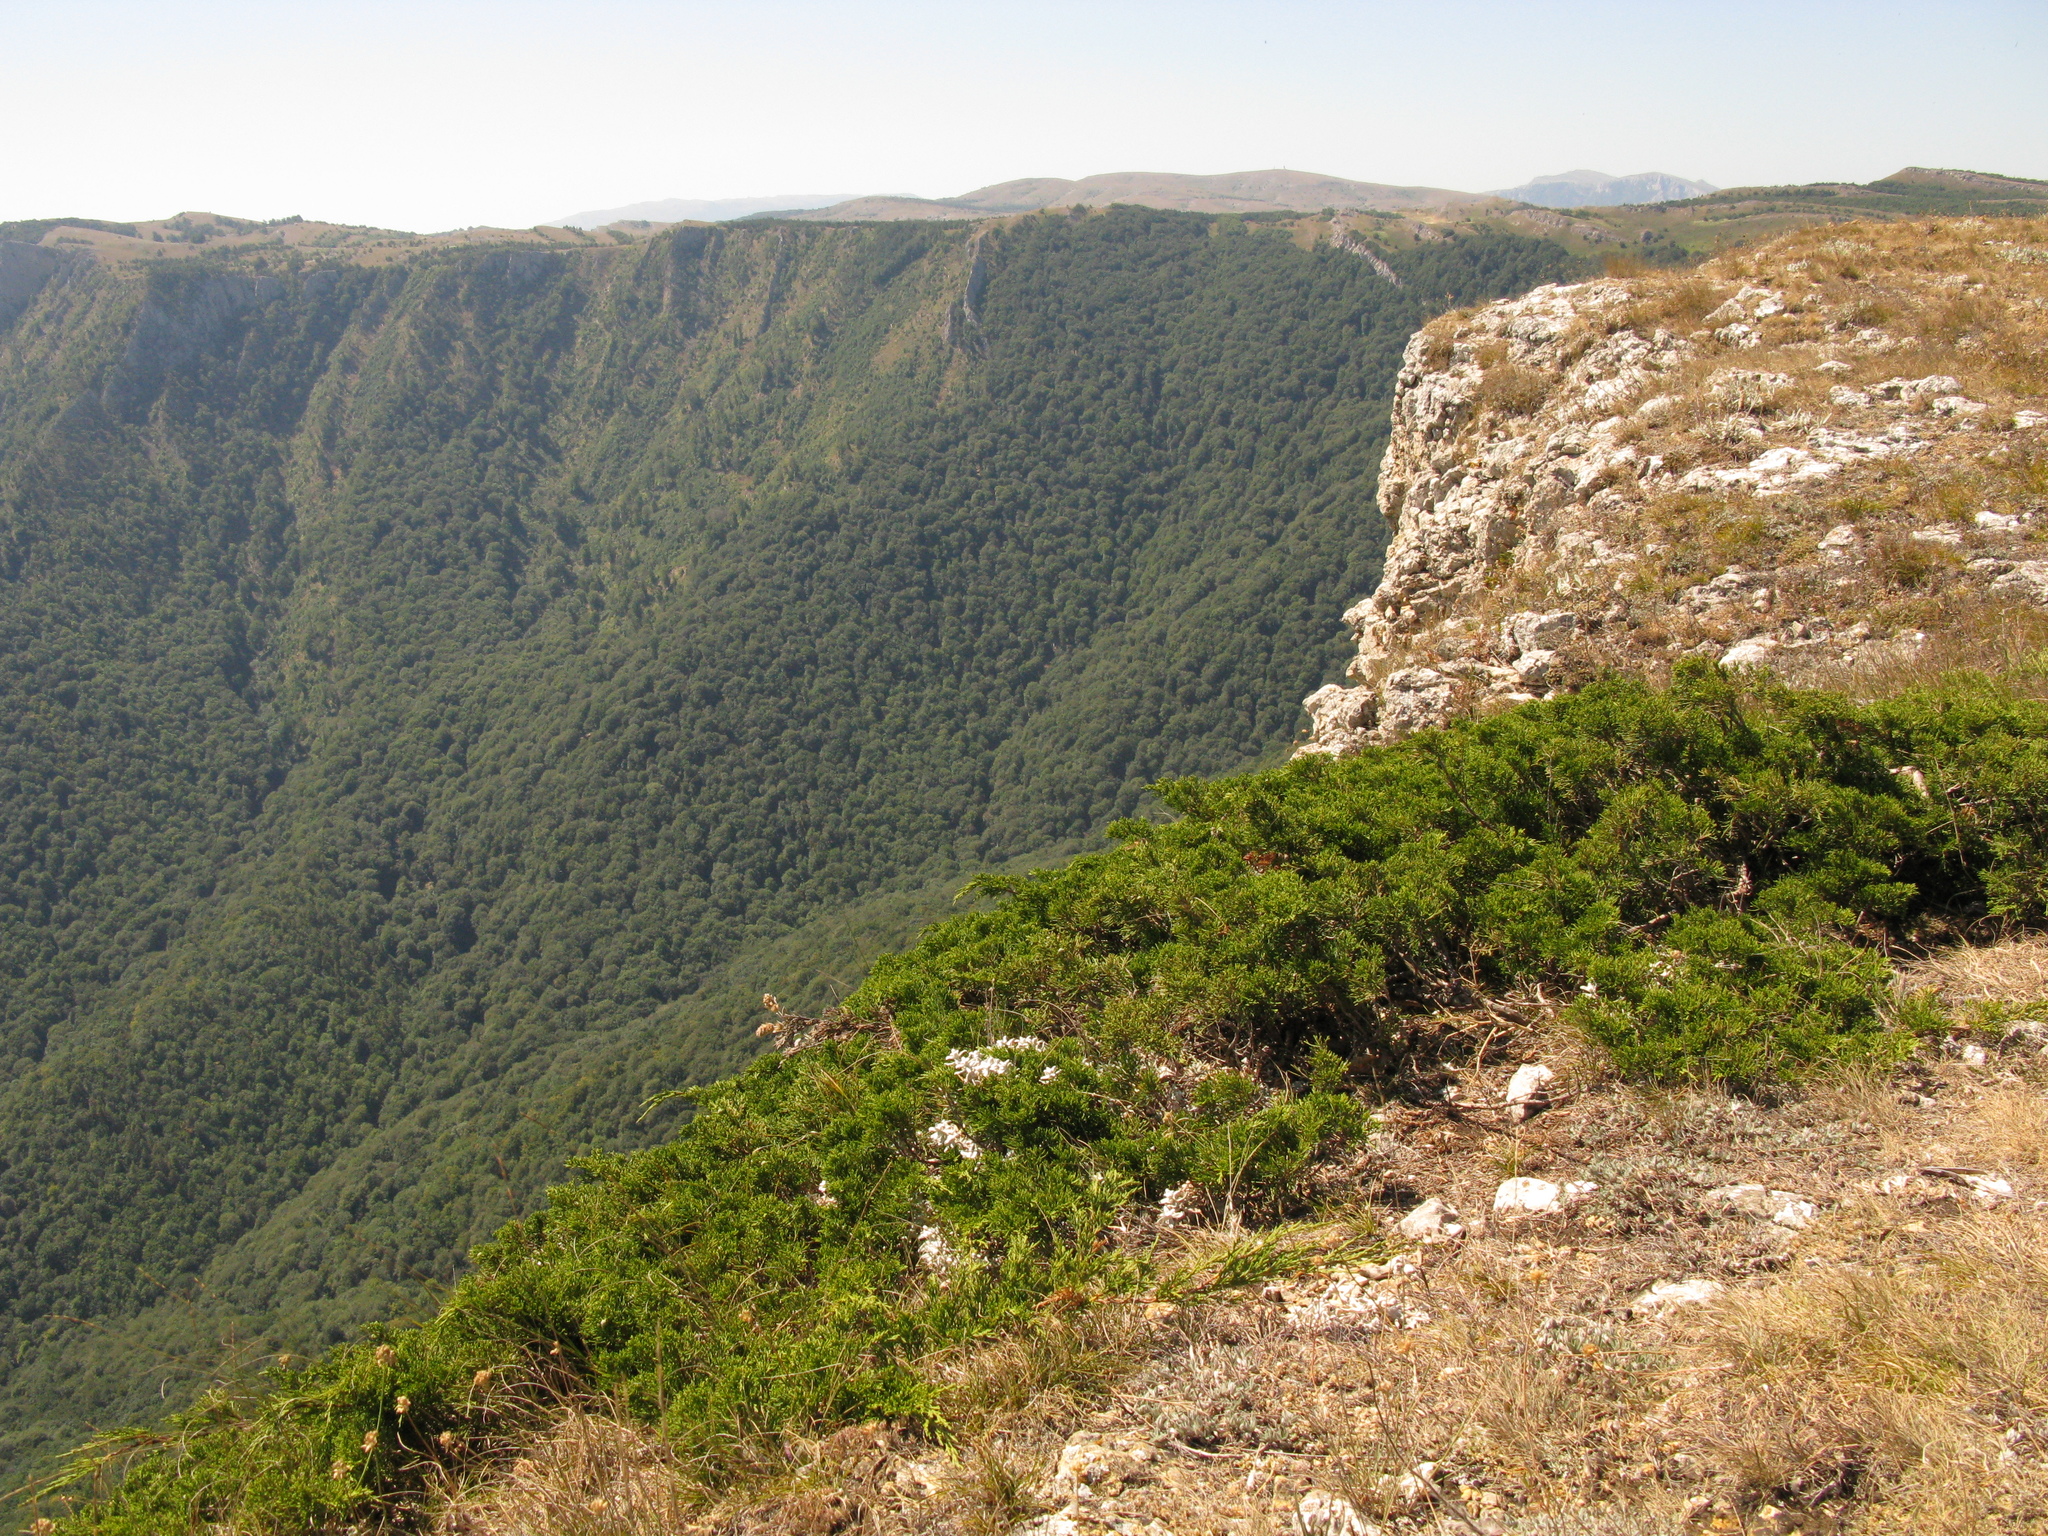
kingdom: Plantae
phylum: Tracheophyta
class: Pinopsida
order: Pinales
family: Cupressaceae
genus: Juniperus
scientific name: Juniperus sabina
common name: Savin
